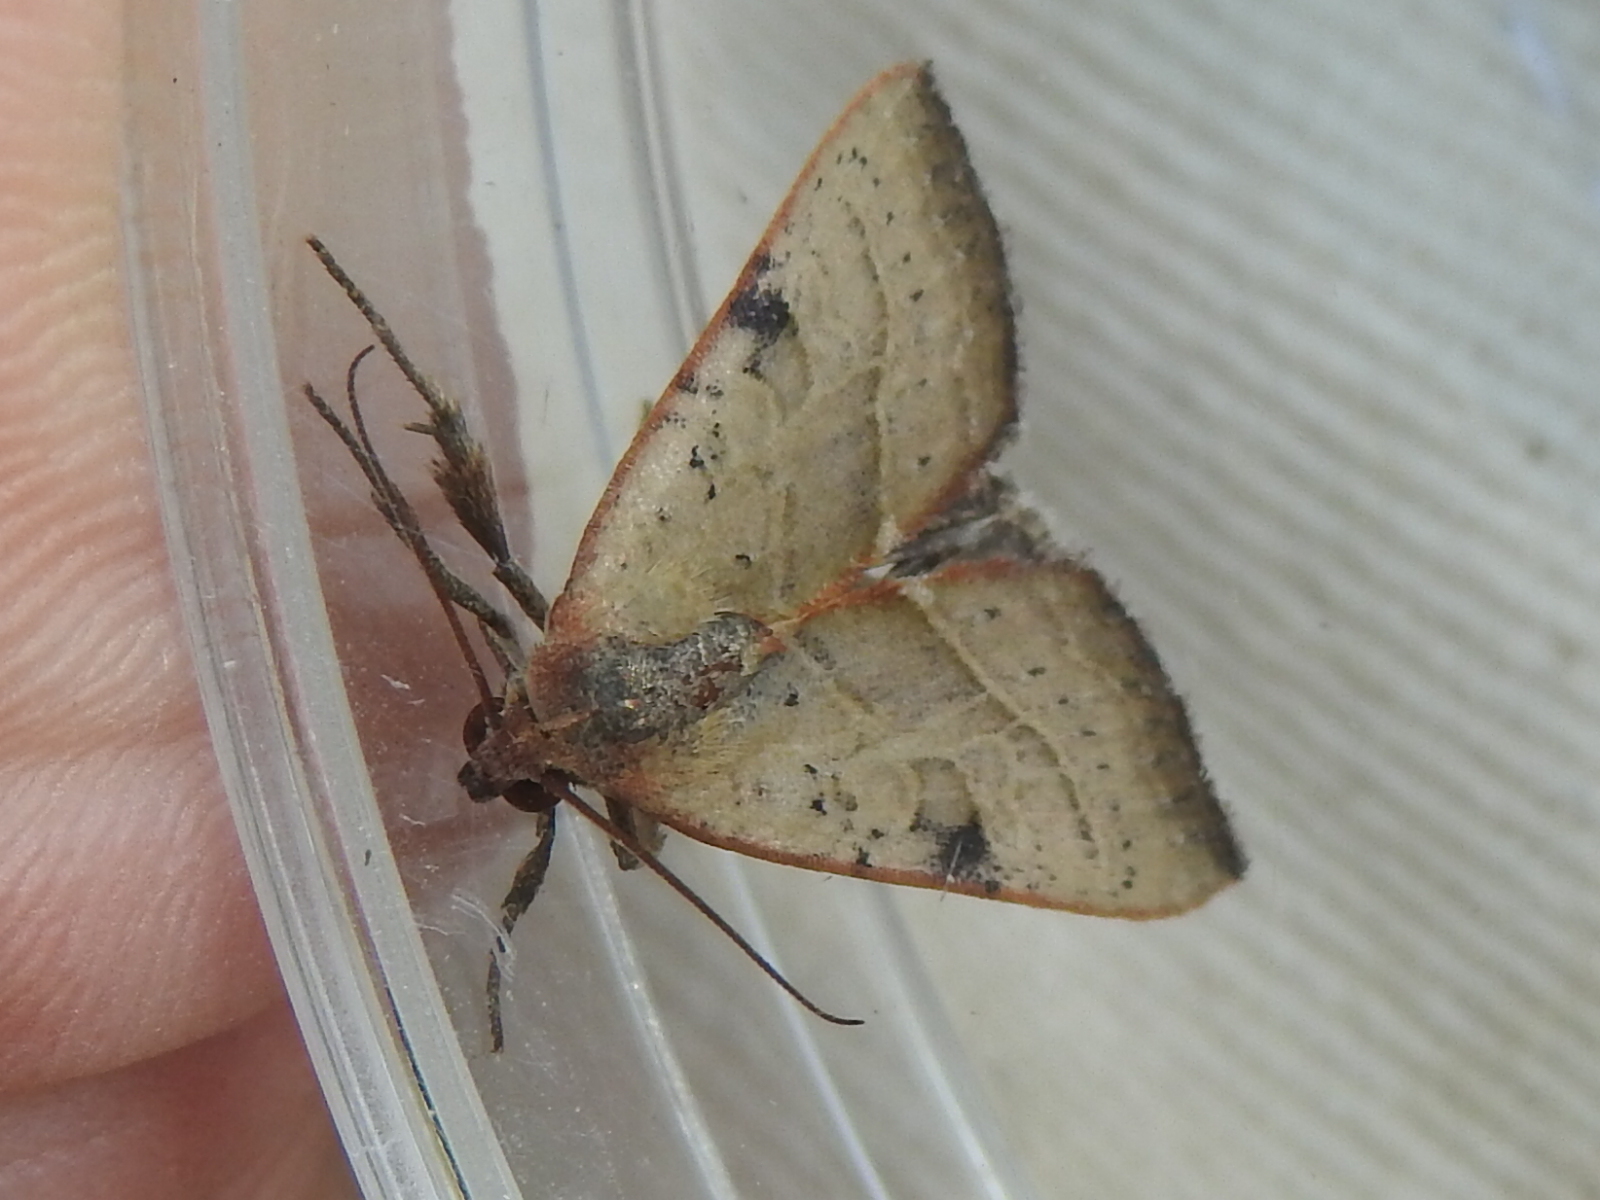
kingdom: Animalia
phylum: Arthropoda
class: Insecta
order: Lepidoptera
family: Noctuidae
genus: Galgula
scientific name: Galgula partita
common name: Wedgeling
